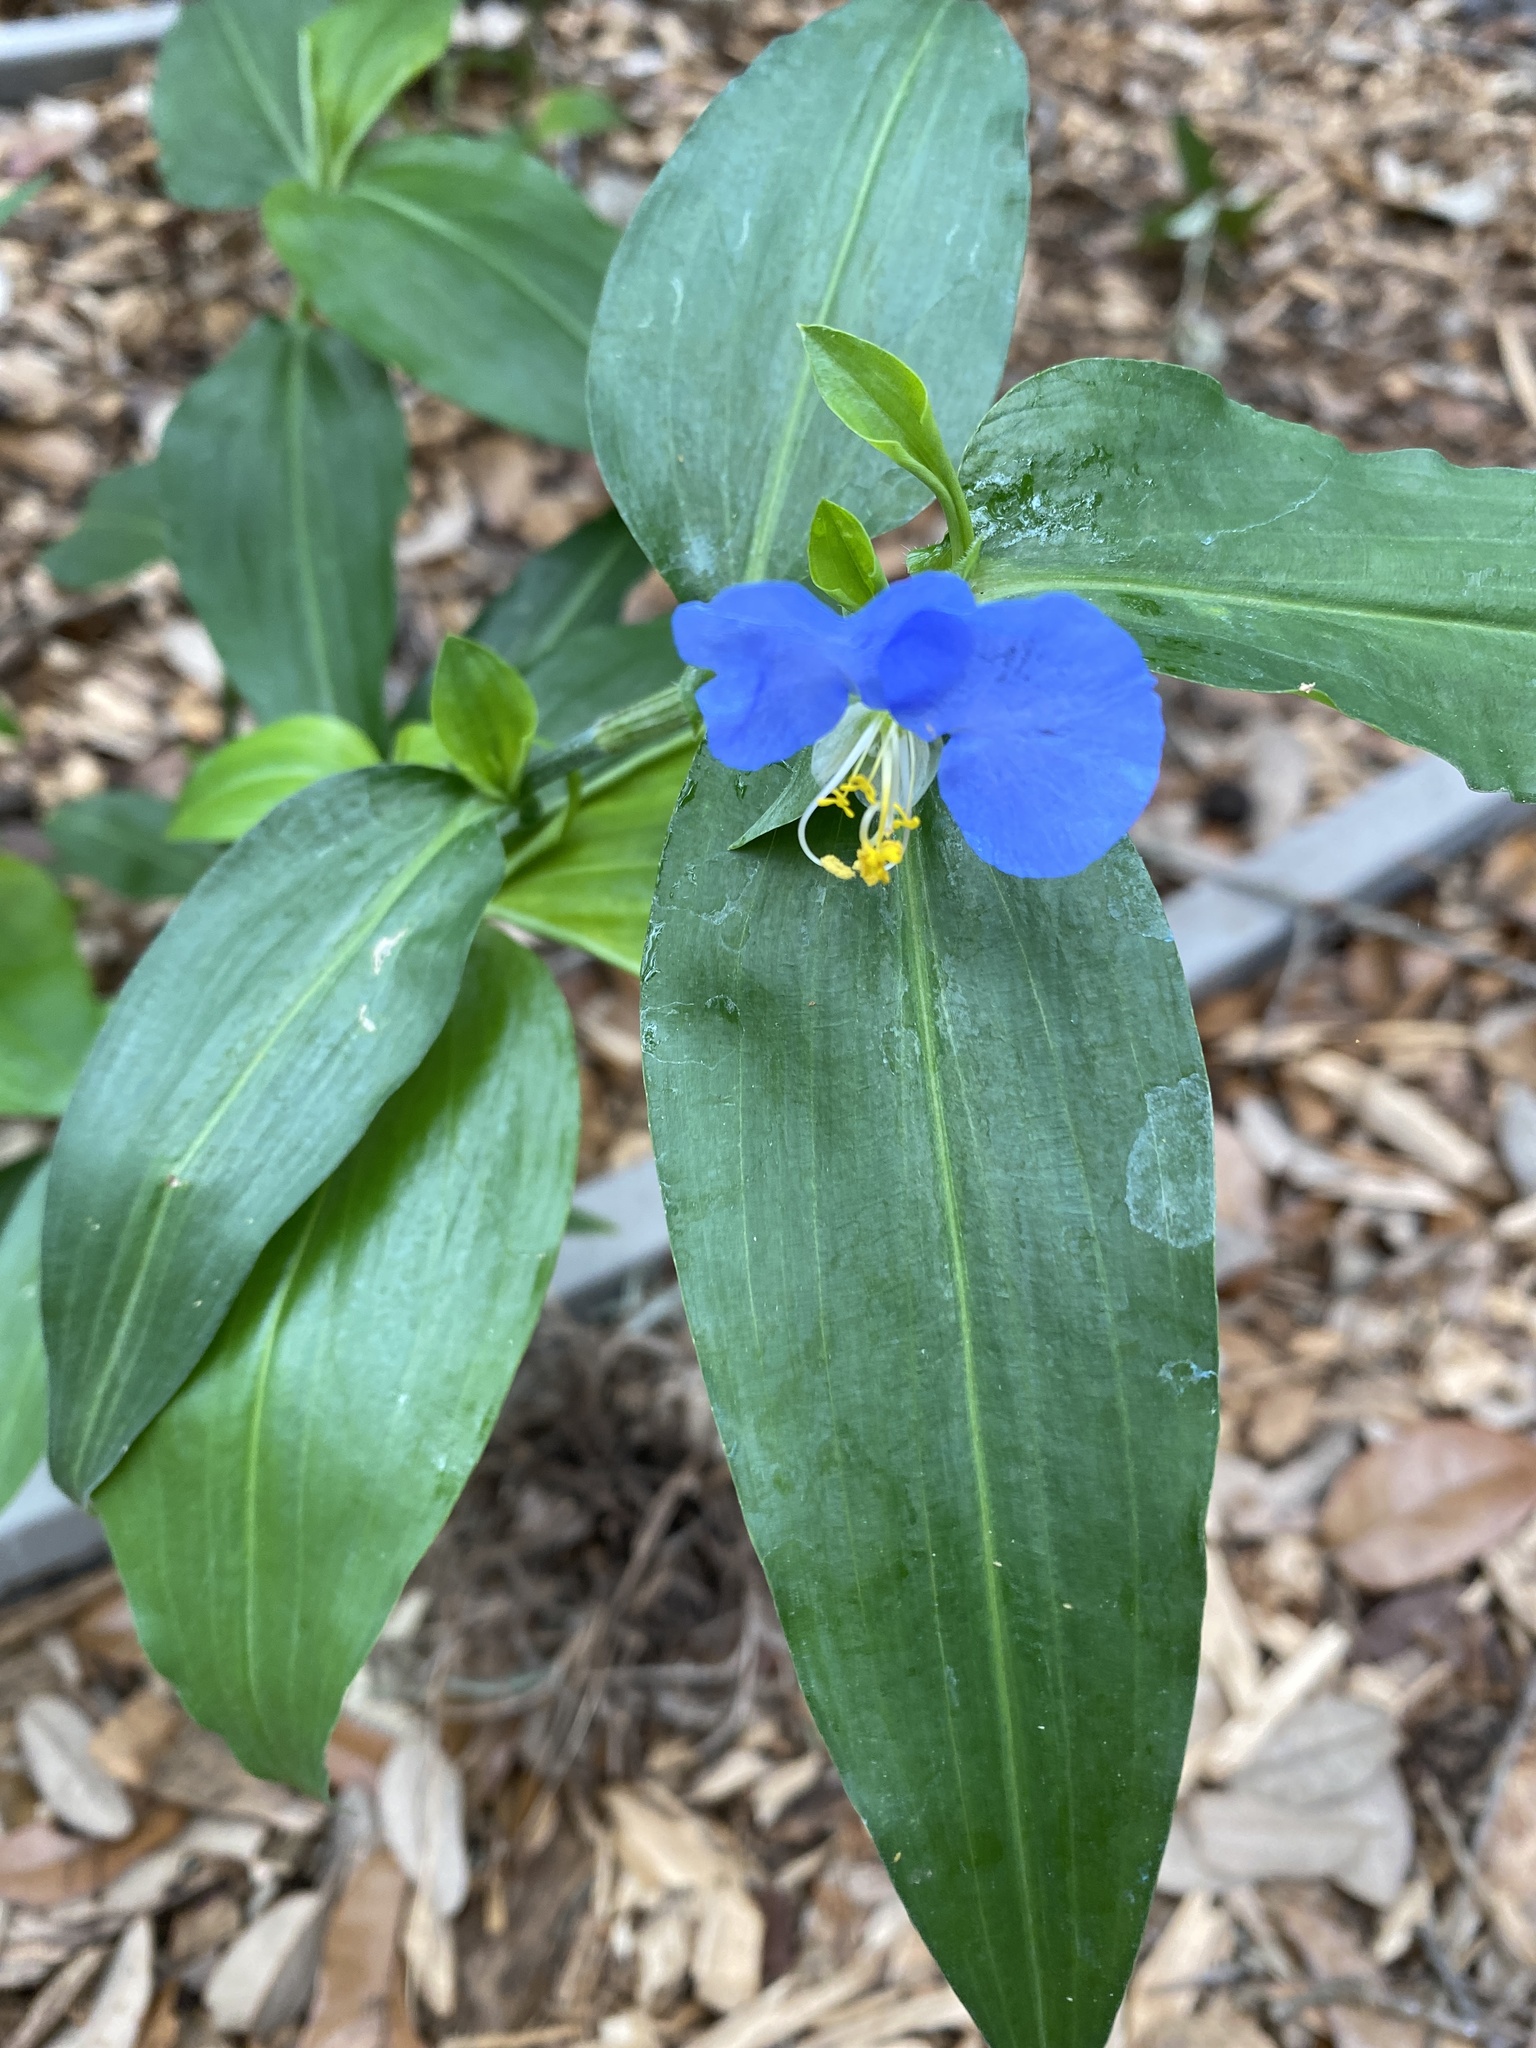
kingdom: Plantae
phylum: Tracheophyta
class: Liliopsida
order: Commelinales
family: Commelinaceae
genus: Commelina
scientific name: Commelina erecta
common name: Blousel blommetjie
